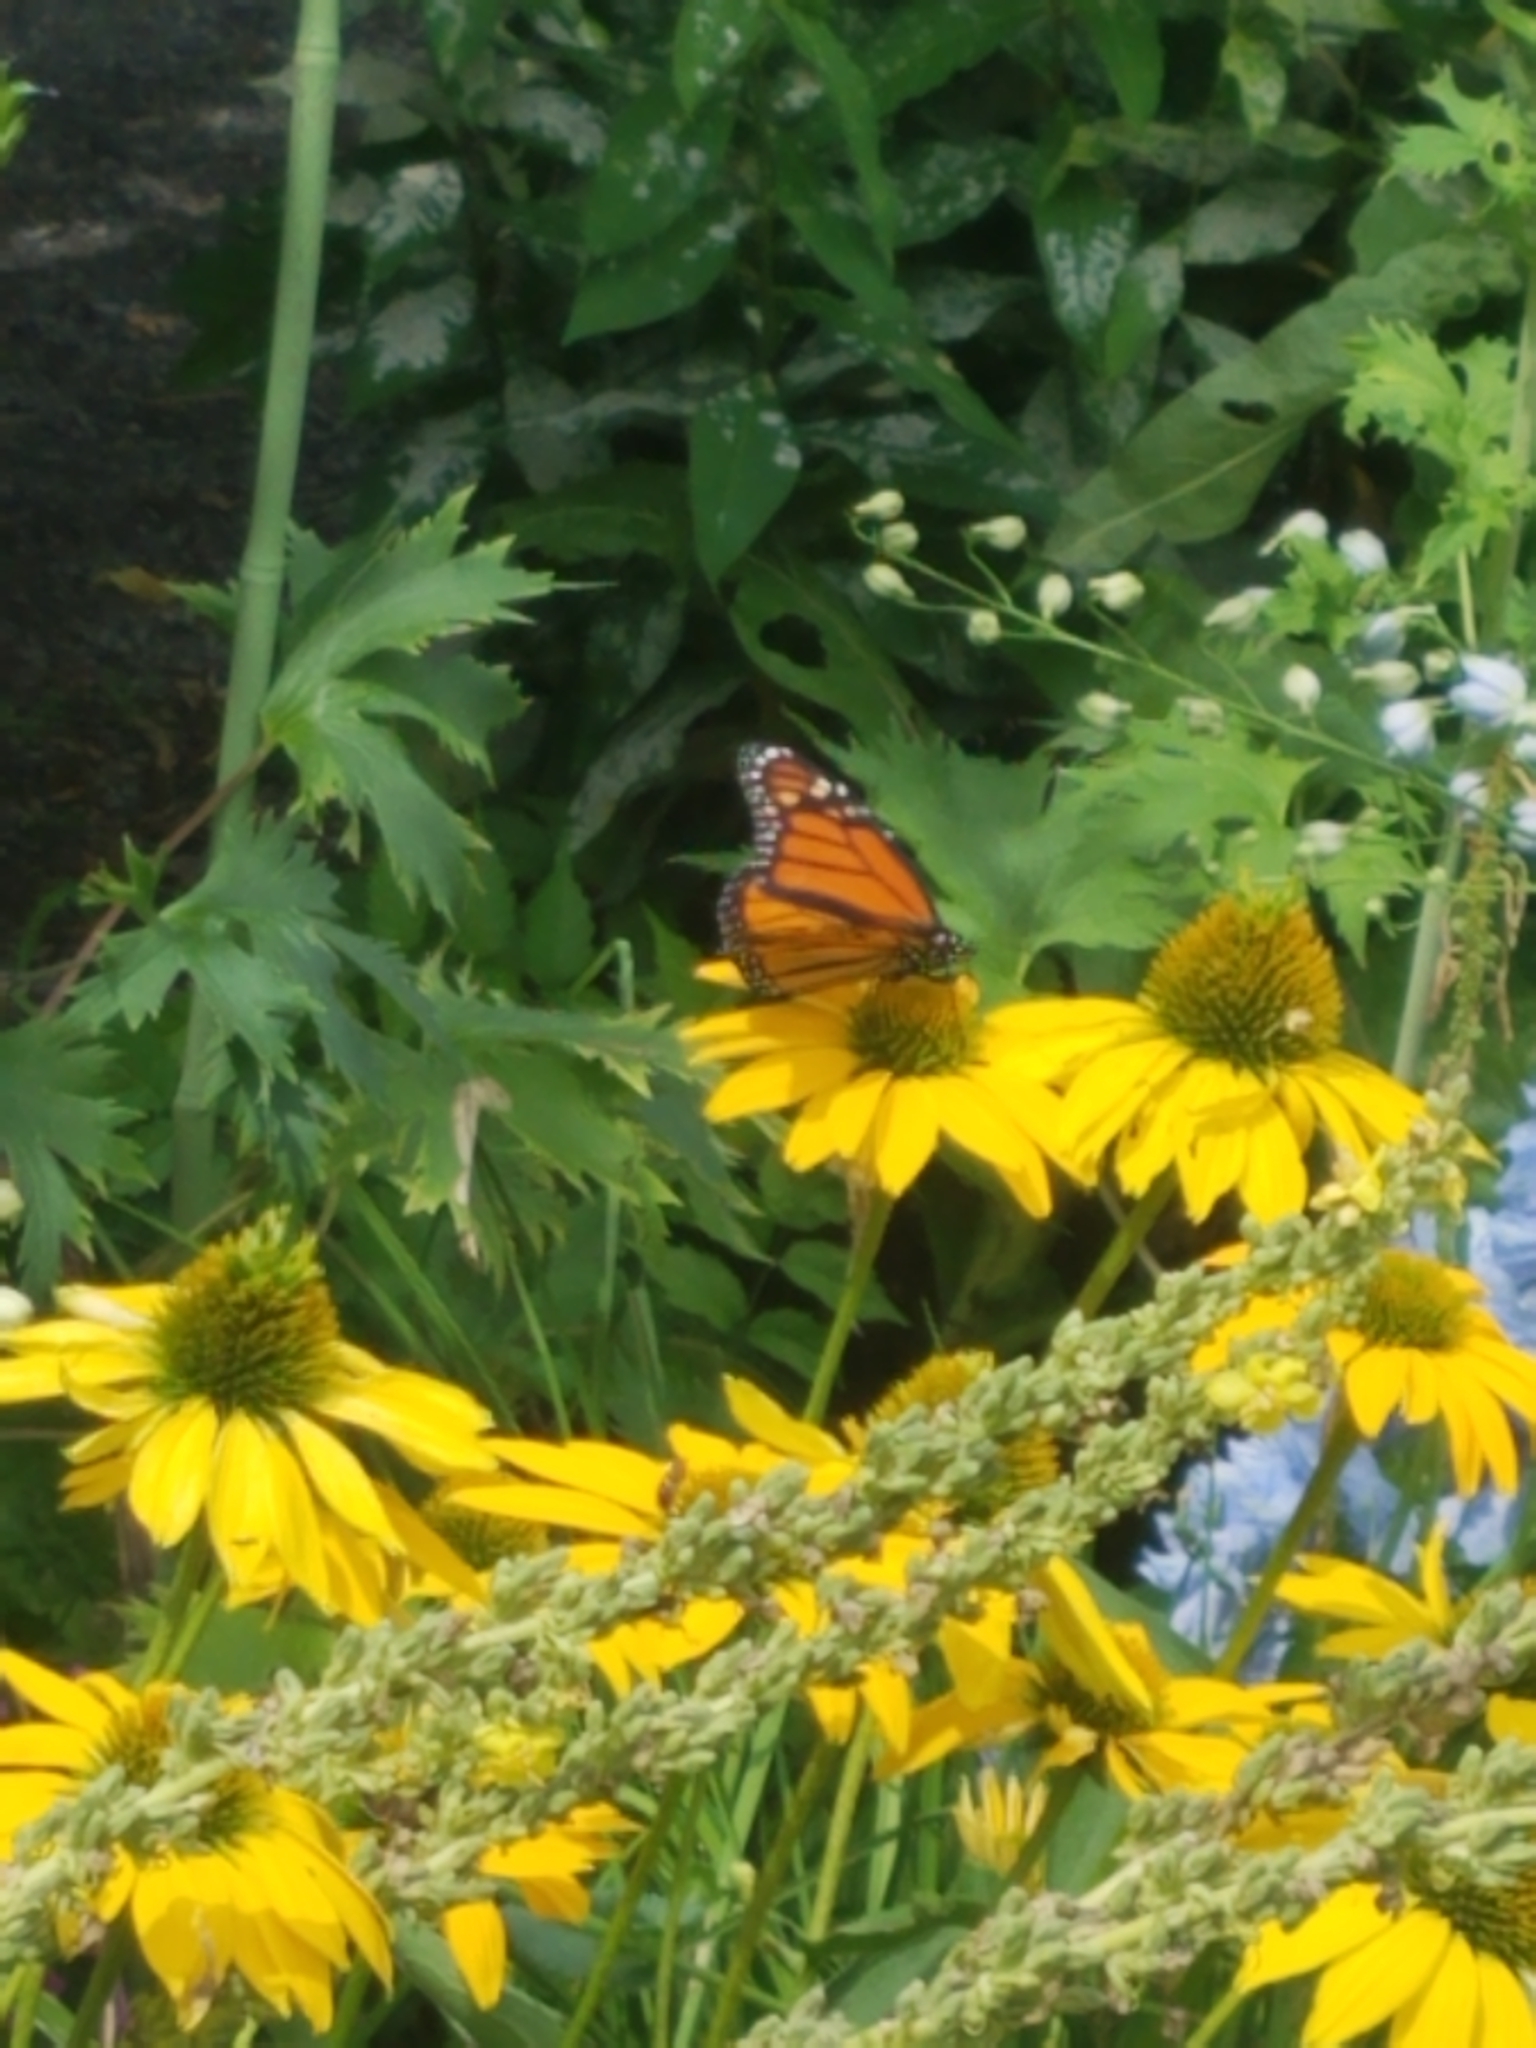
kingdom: Animalia
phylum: Arthropoda
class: Insecta
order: Lepidoptera
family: Nymphalidae
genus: Danaus
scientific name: Danaus plexippus
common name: Monarch
